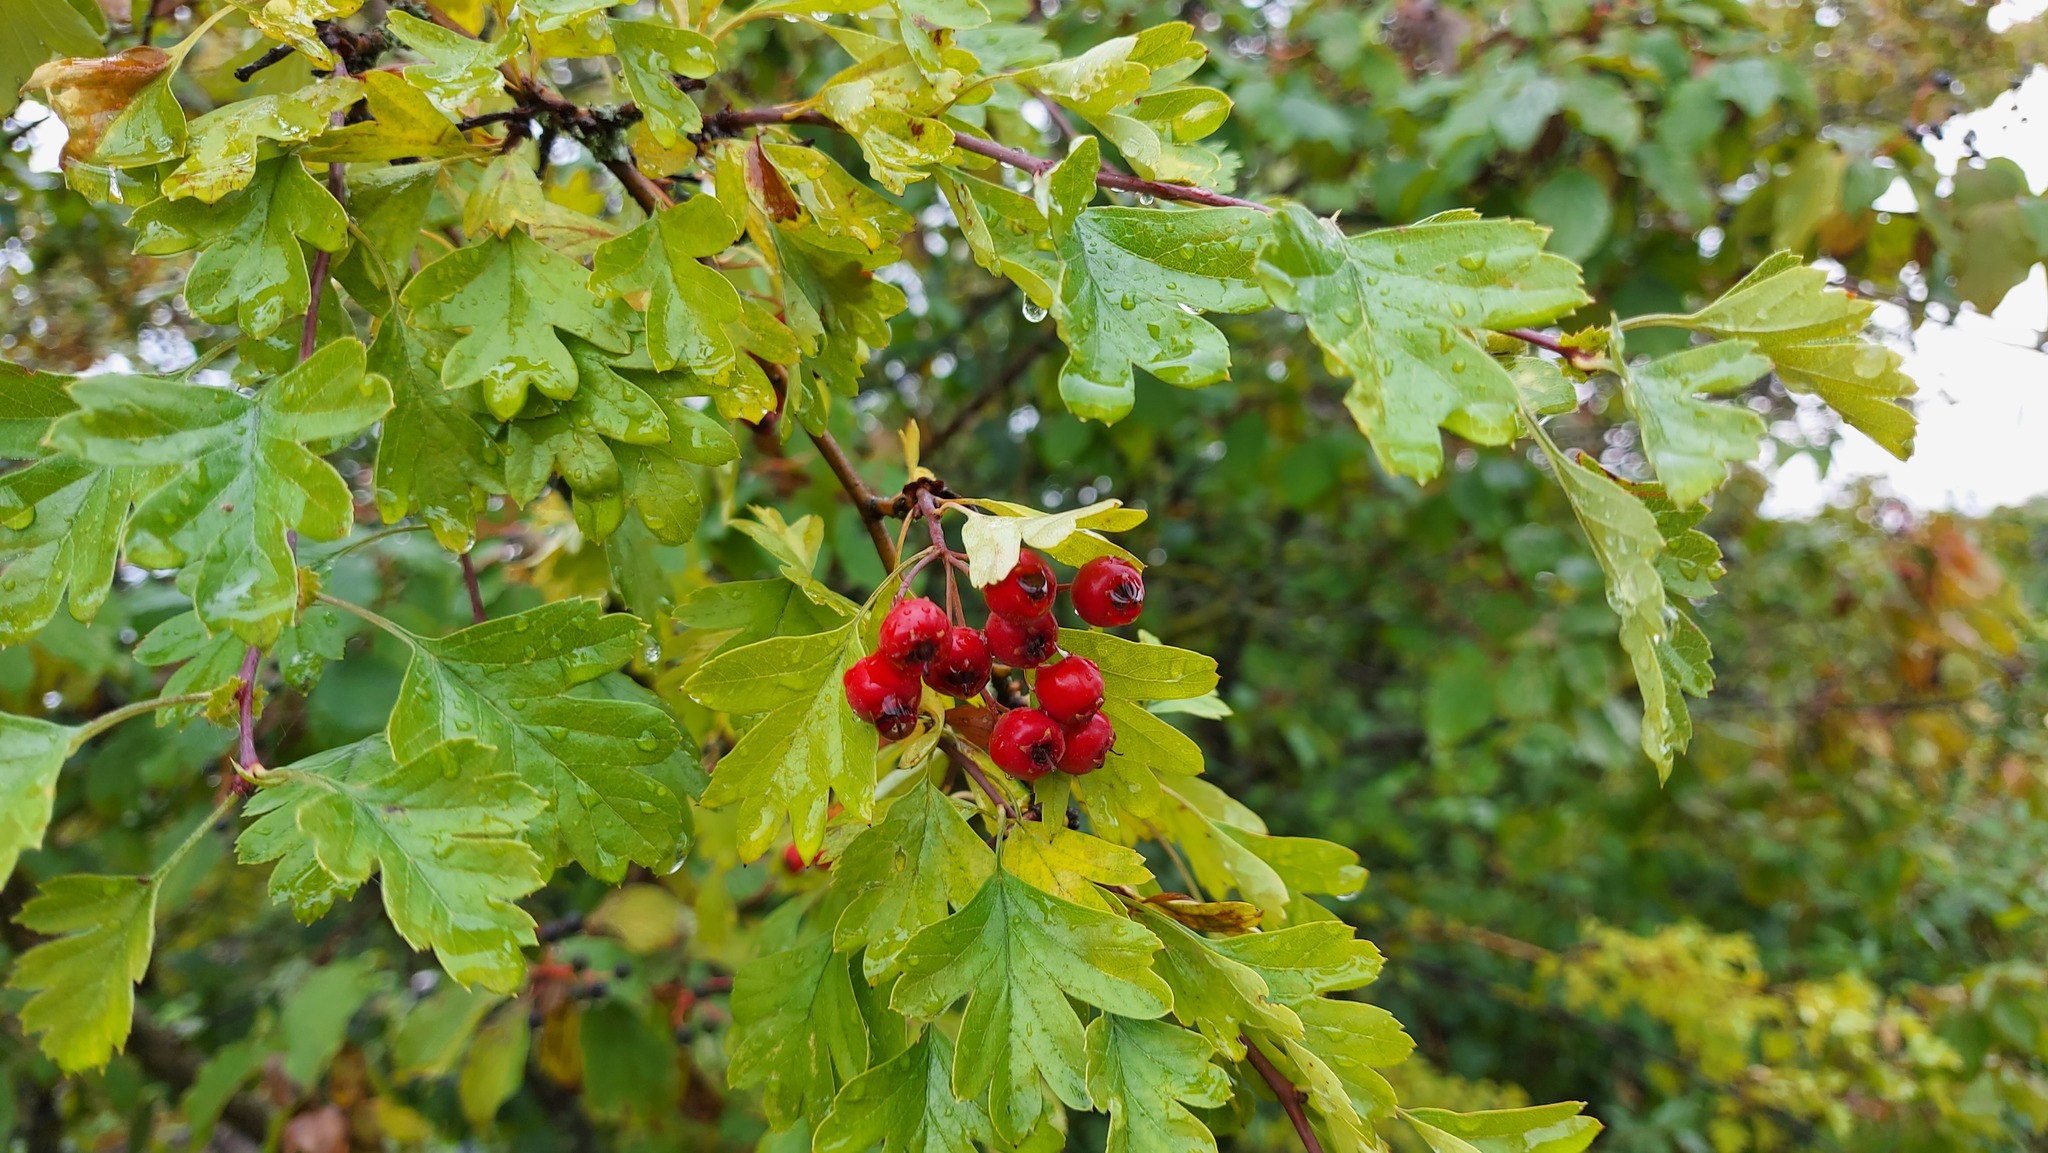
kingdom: Plantae
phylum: Tracheophyta
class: Magnoliopsida
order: Rosales
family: Rosaceae
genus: Crataegus
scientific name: Crataegus monogyna
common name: Hawthorn
